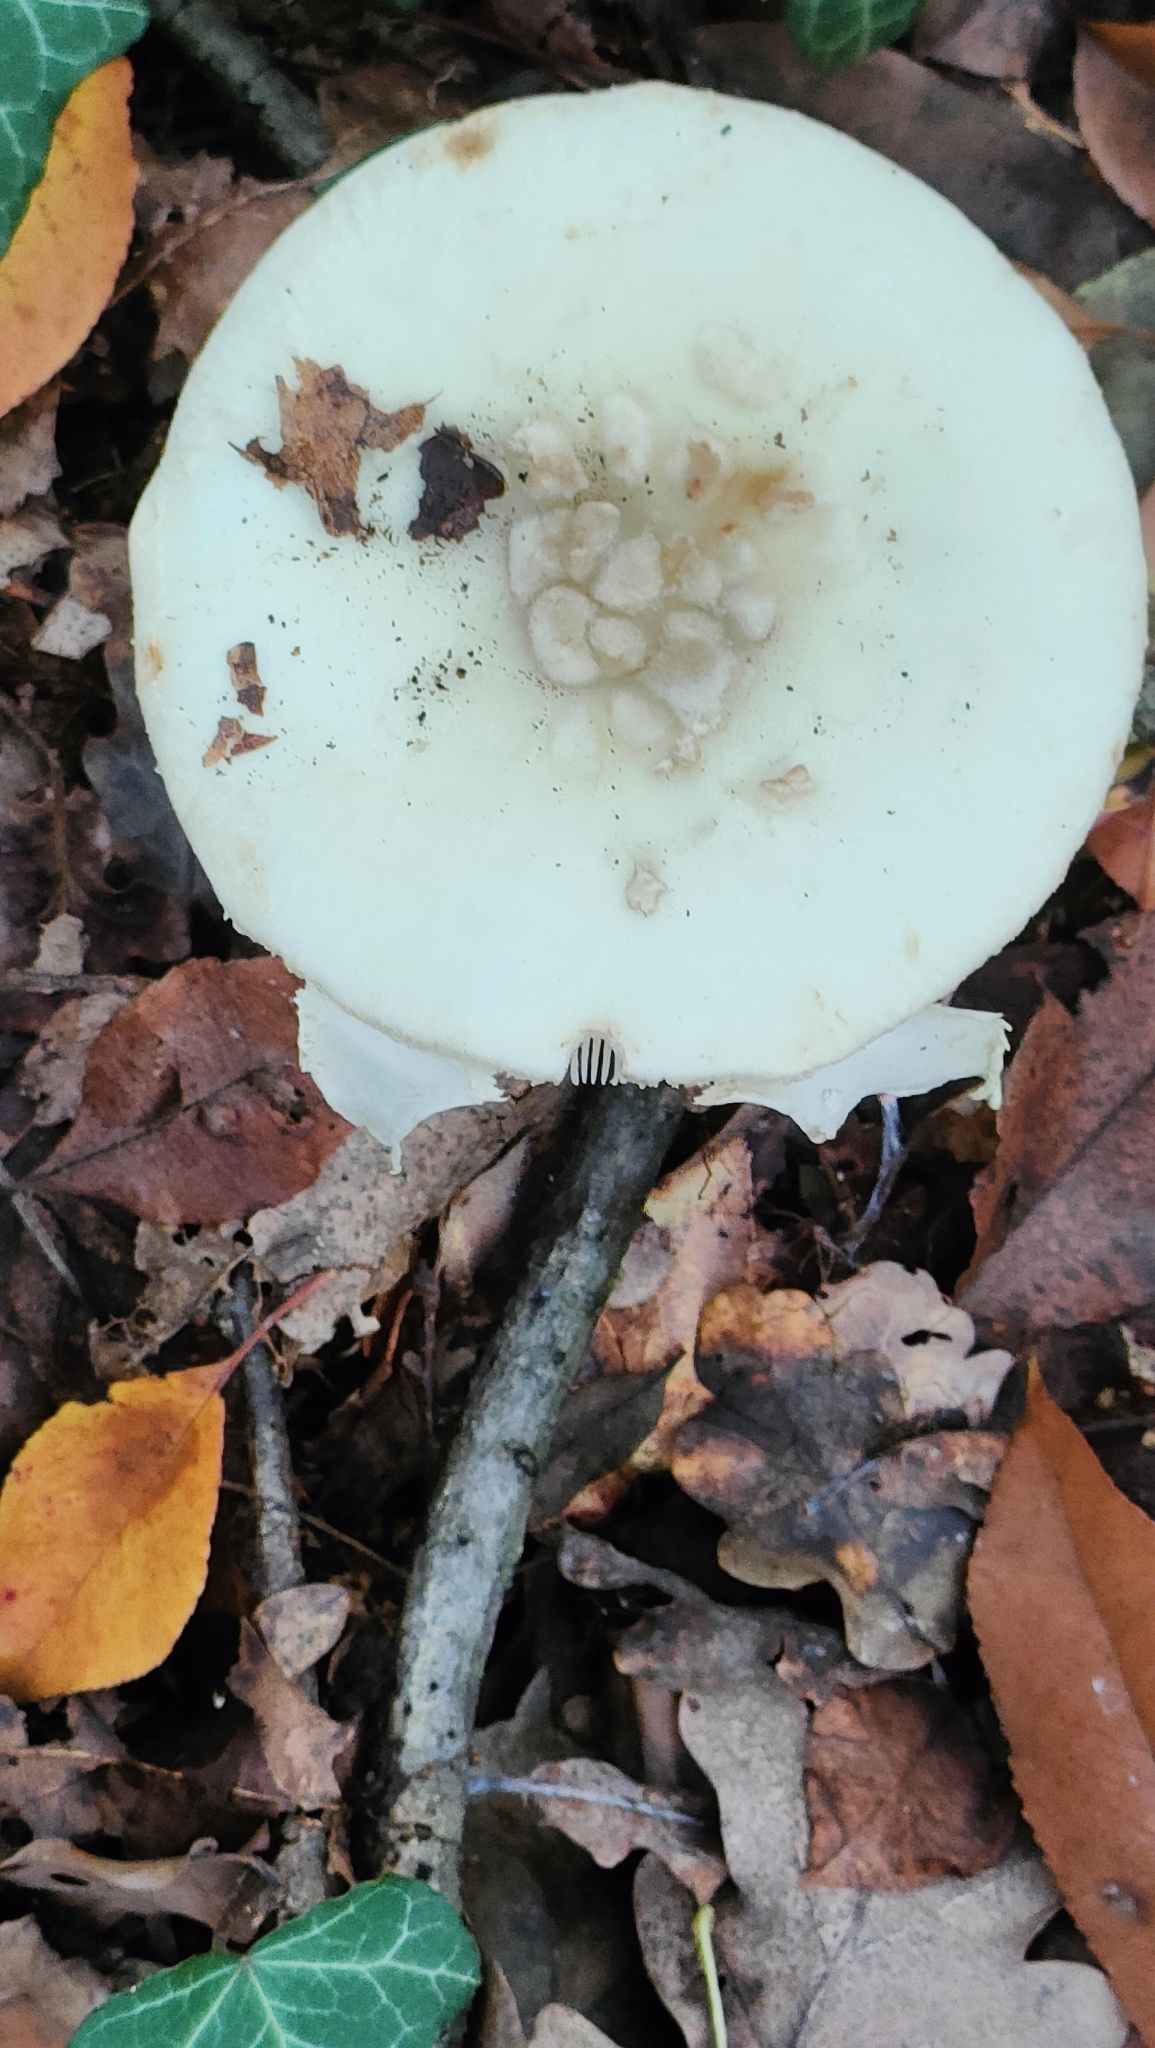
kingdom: Fungi
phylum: Basidiomycota
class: Agaricomycetes
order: Agaricales
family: Amanitaceae
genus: Amanita
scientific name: Amanita citrina
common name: False death-cap
